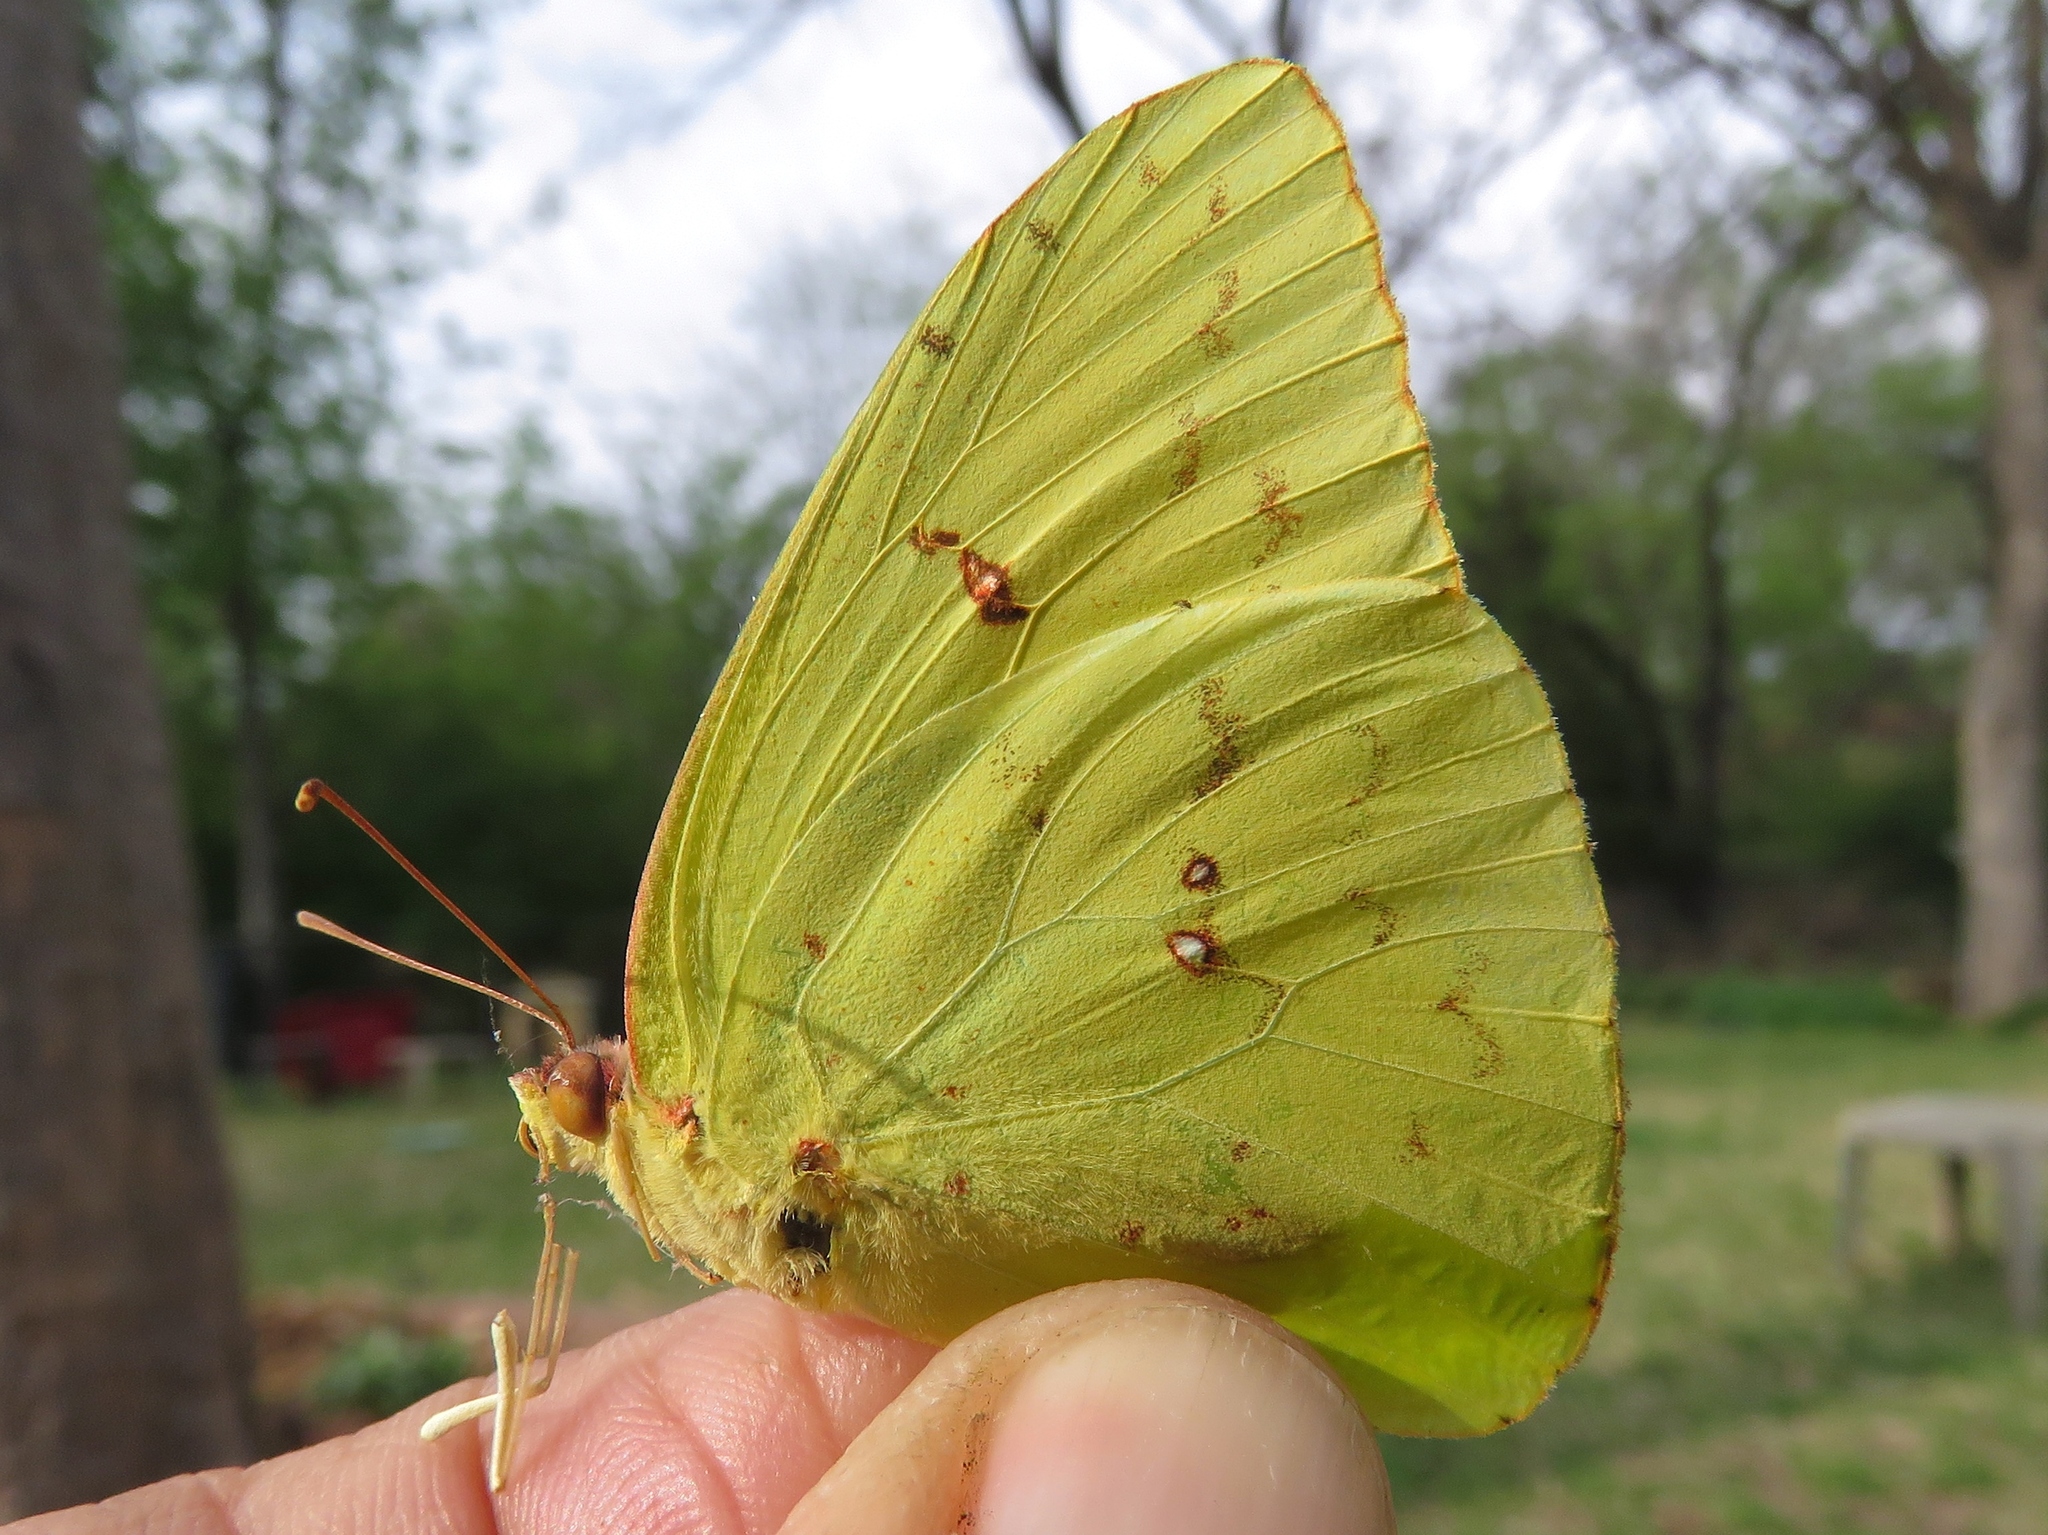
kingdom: Animalia
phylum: Arthropoda
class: Insecta
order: Lepidoptera
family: Pieridae
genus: Phoebis
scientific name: Phoebis sennae
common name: Cloudless sulphur
